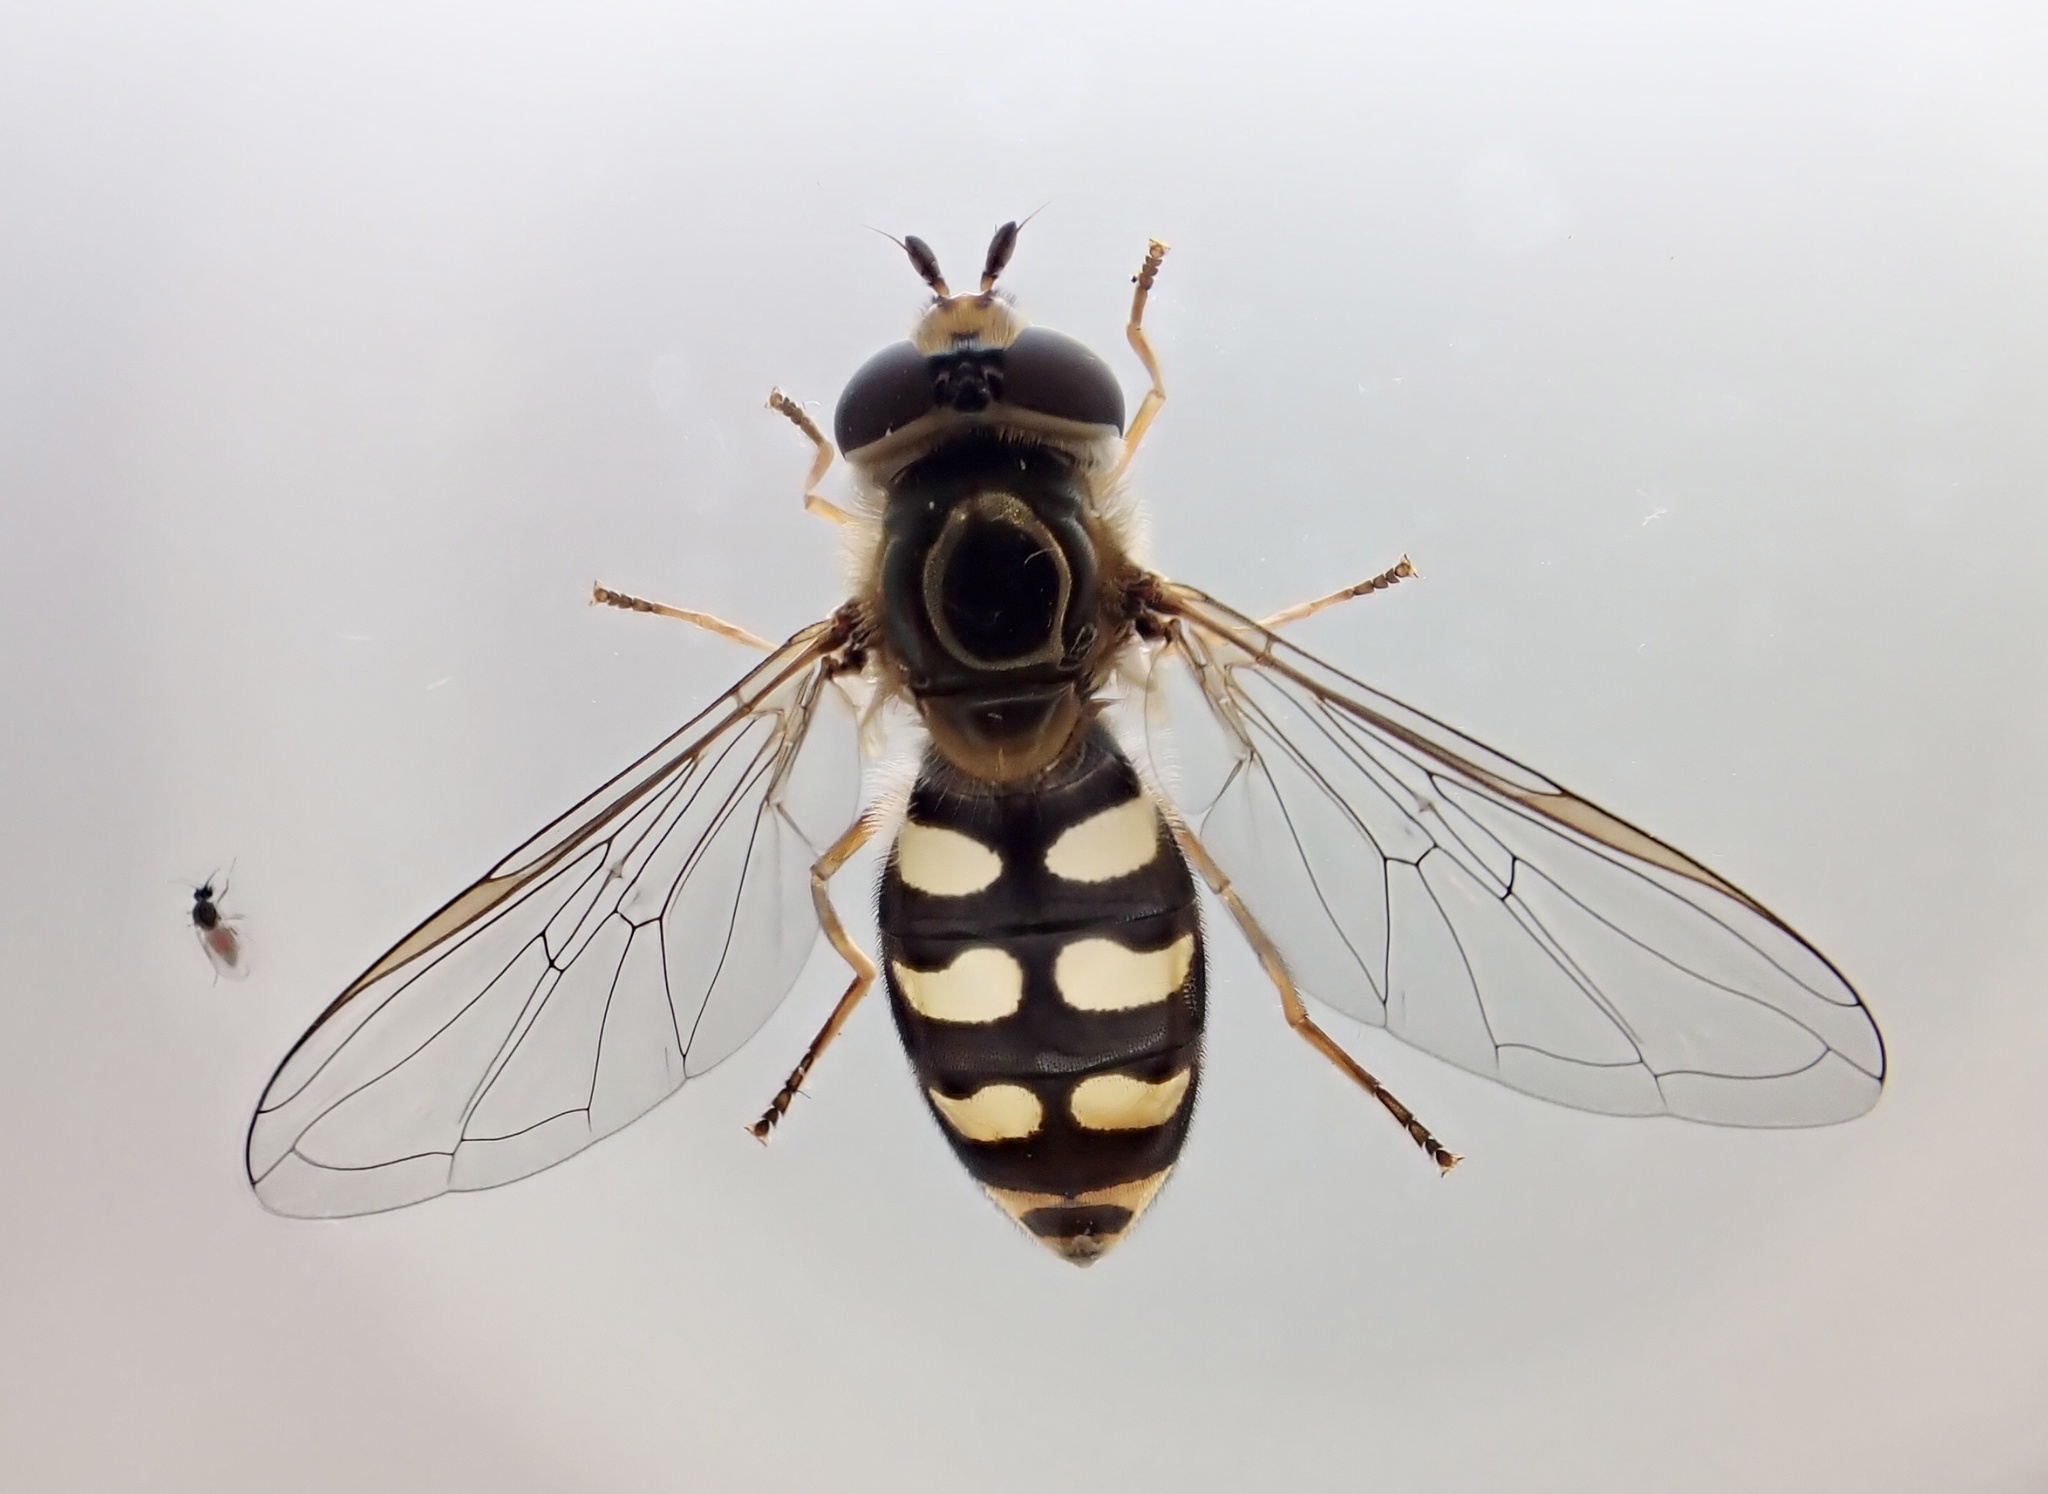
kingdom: Animalia
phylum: Arthropoda
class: Insecta
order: Diptera
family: Syrphidae
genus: Eupeodes
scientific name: Eupeodes luniger
